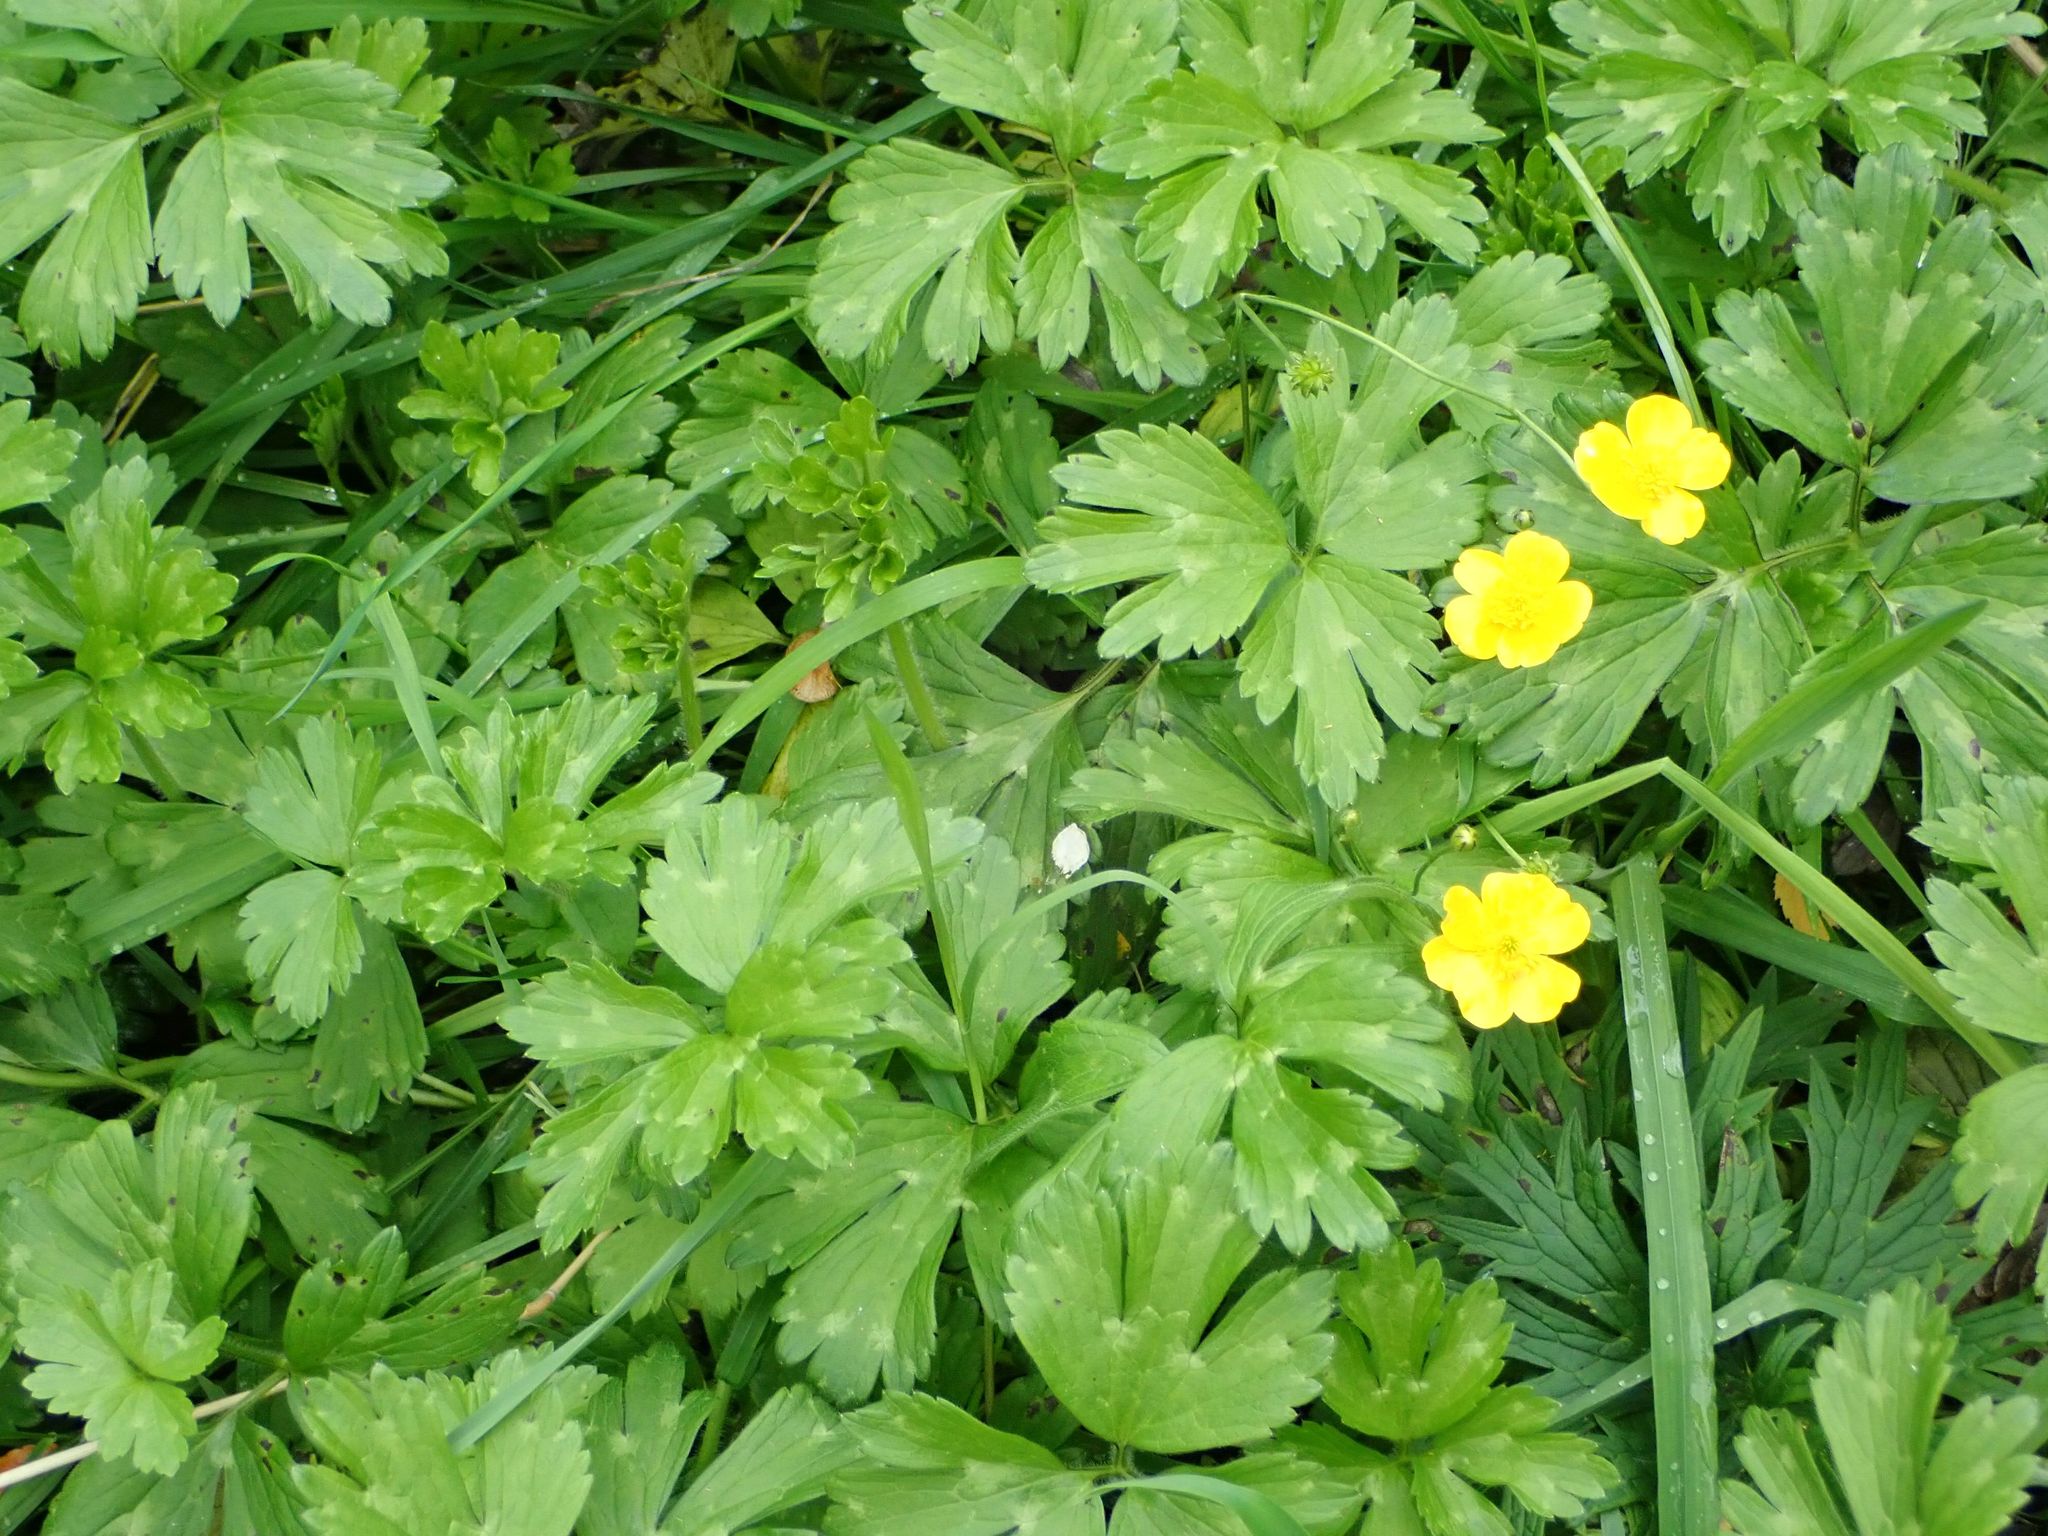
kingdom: Plantae
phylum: Tracheophyta
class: Magnoliopsida
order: Ranunculales
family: Ranunculaceae
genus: Ranunculus
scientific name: Ranunculus repens
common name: Creeping buttercup
